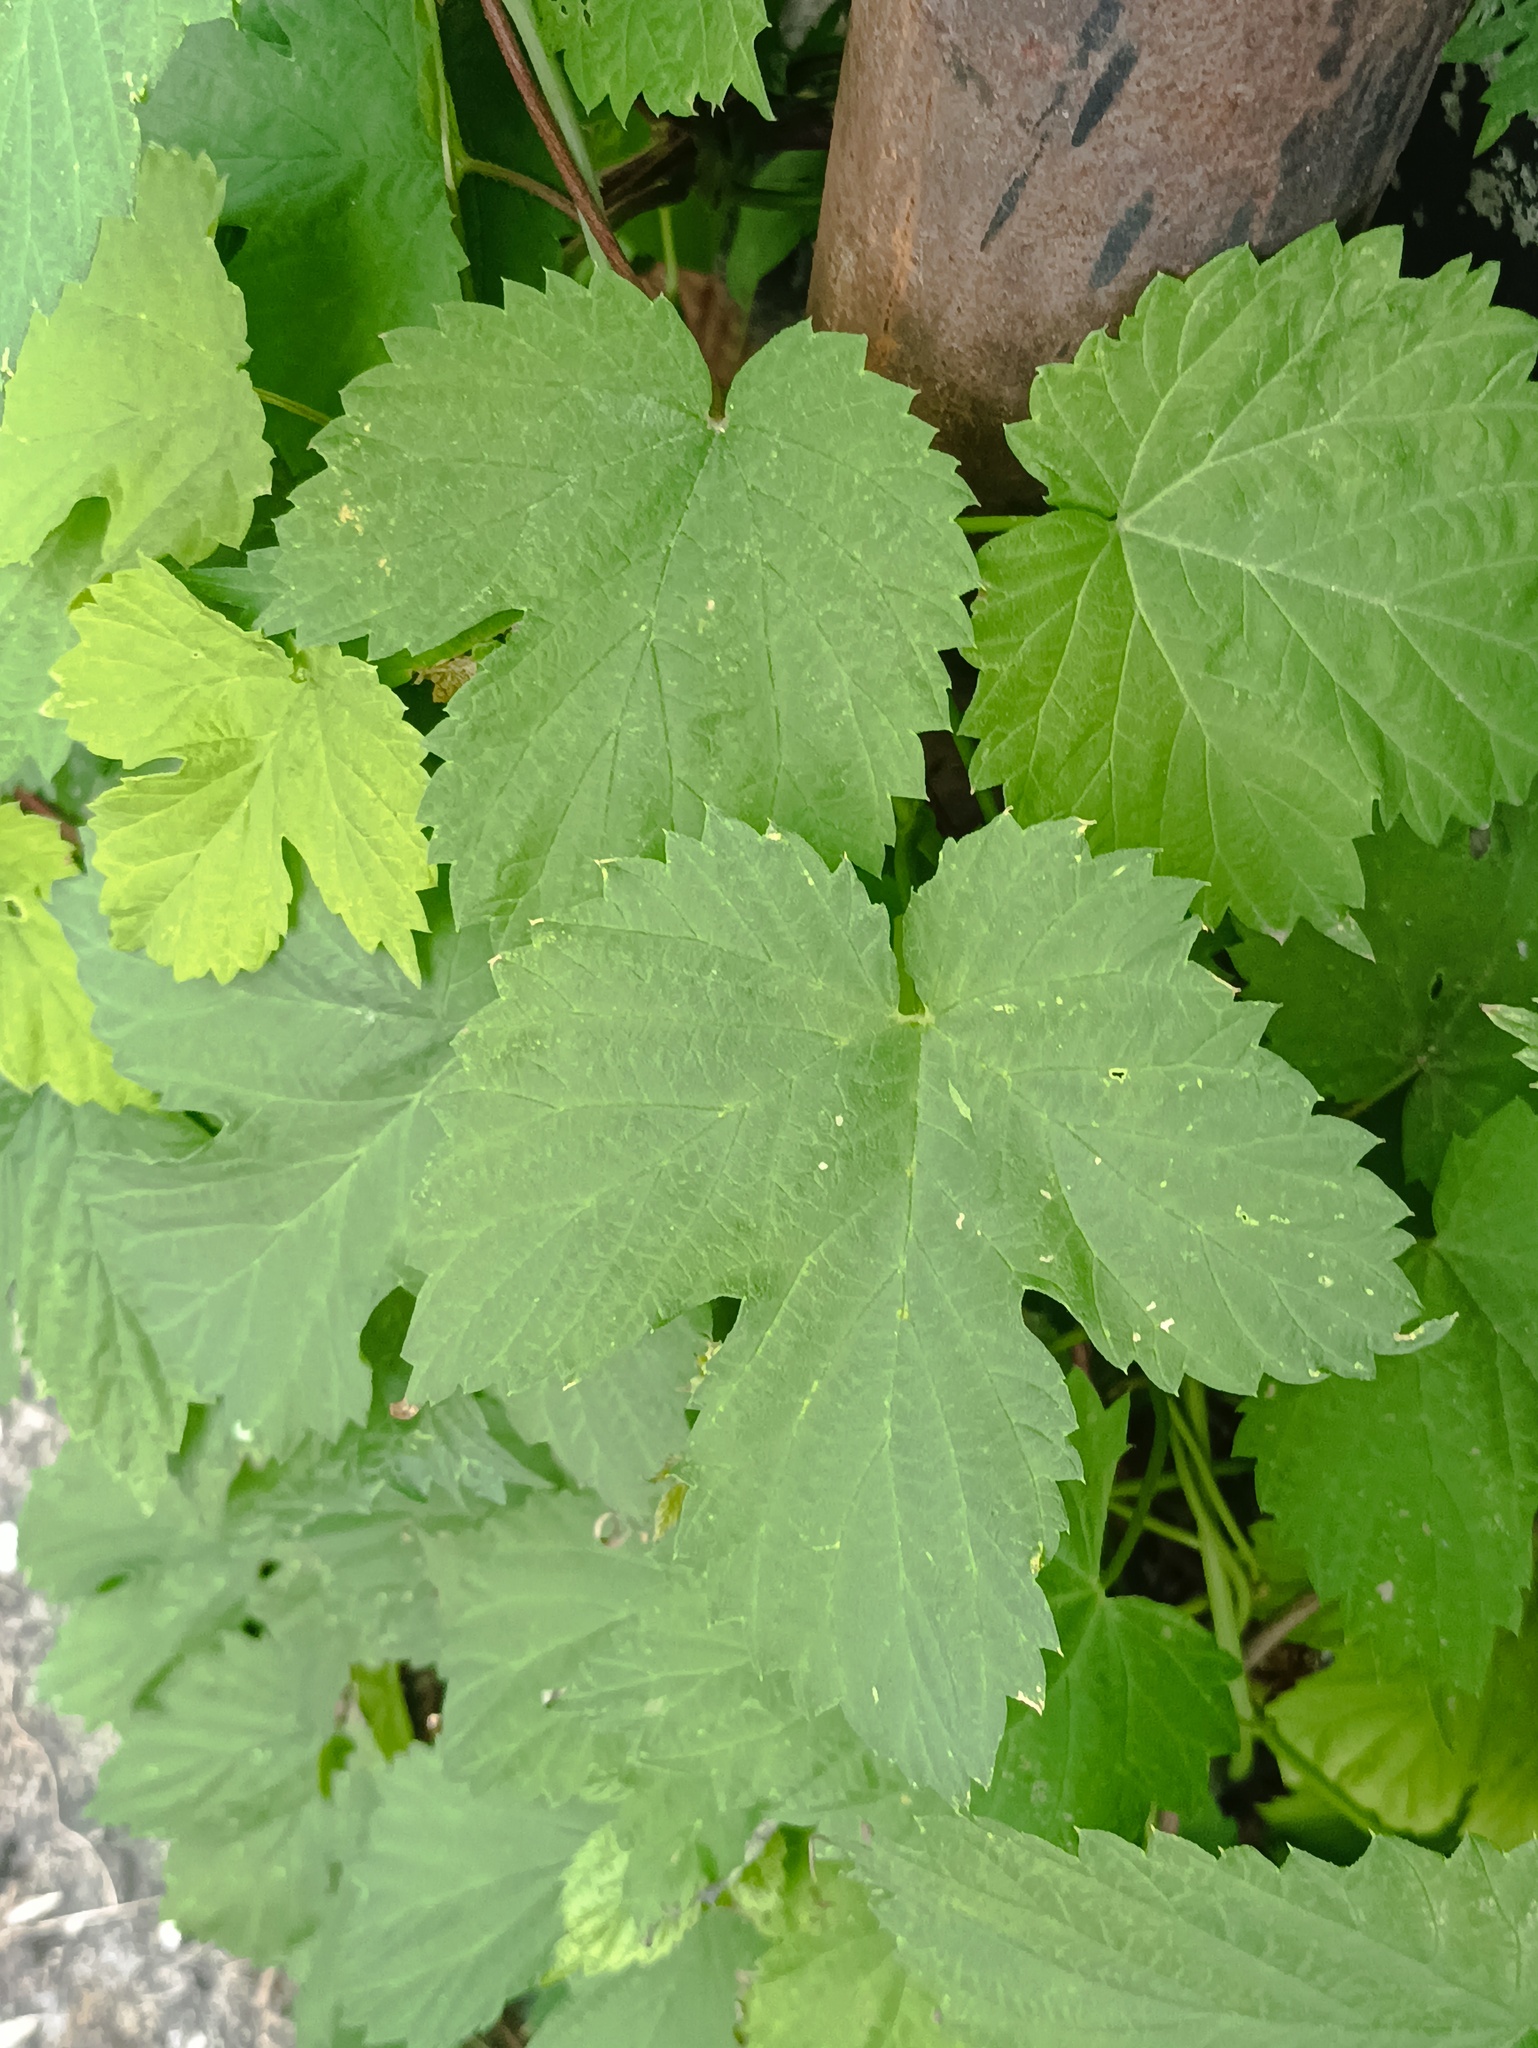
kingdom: Plantae
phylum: Tracheophyta
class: Magnoliopsida
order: Rosales
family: Cannabaceae
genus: Humulus
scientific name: Humulus lupulus
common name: Hop
